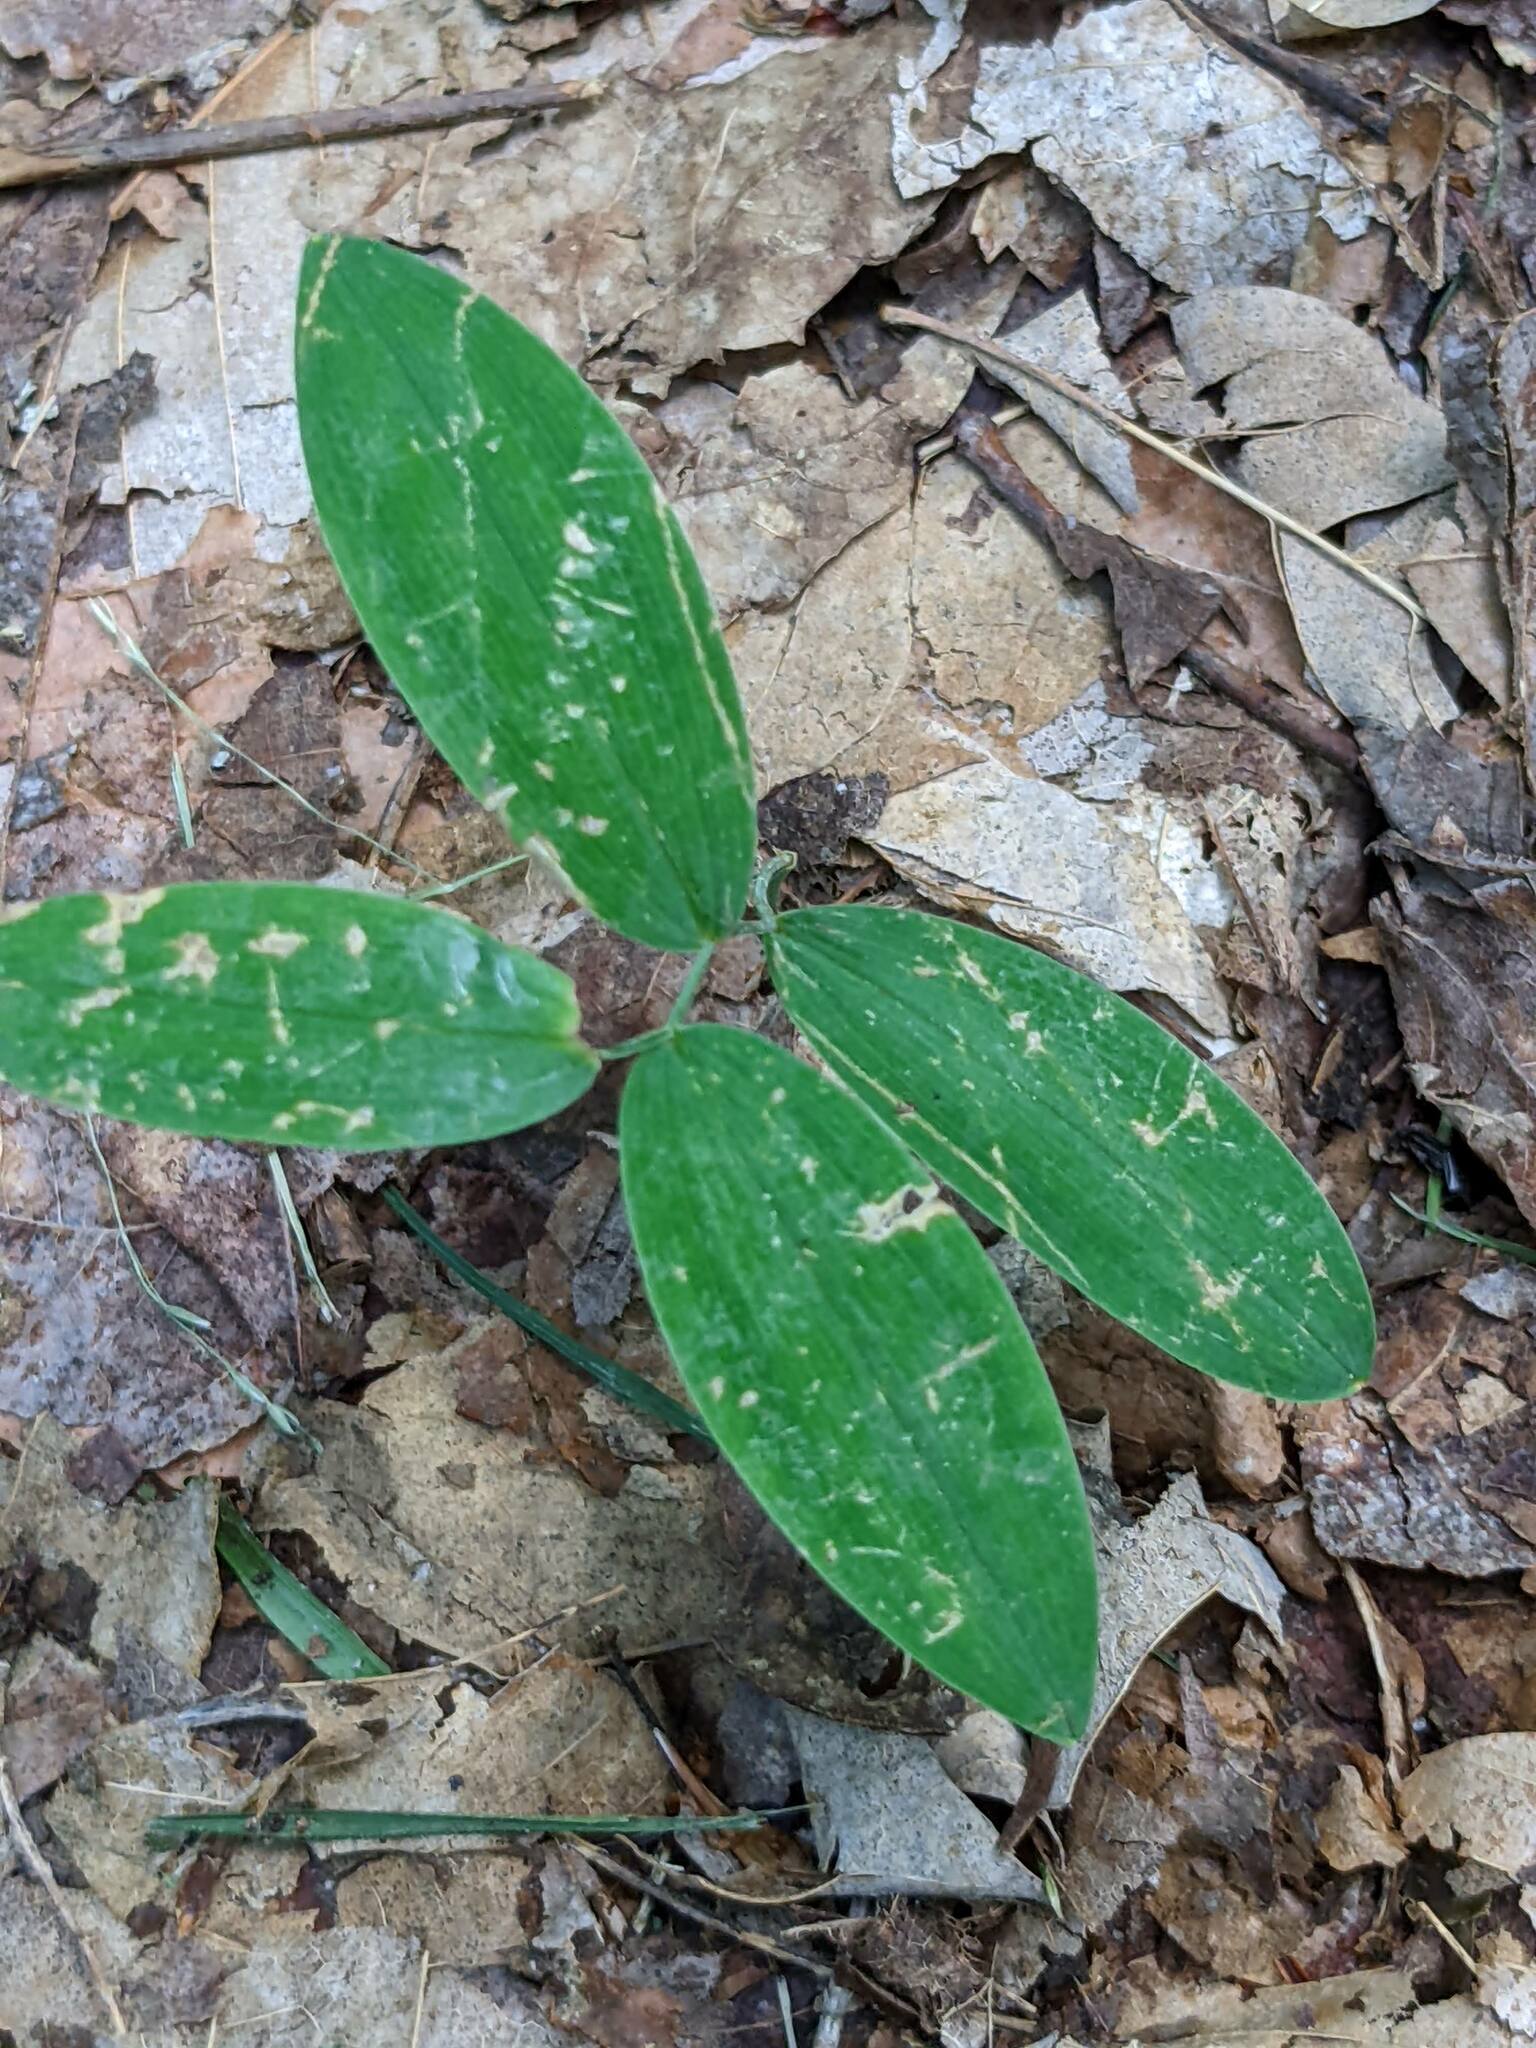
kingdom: Plantae
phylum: Tracheophyta
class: Liliopsida
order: Liliales
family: Colchicaceae
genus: Uvularia
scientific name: Uvularia sessilifolia
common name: Straw-lily
